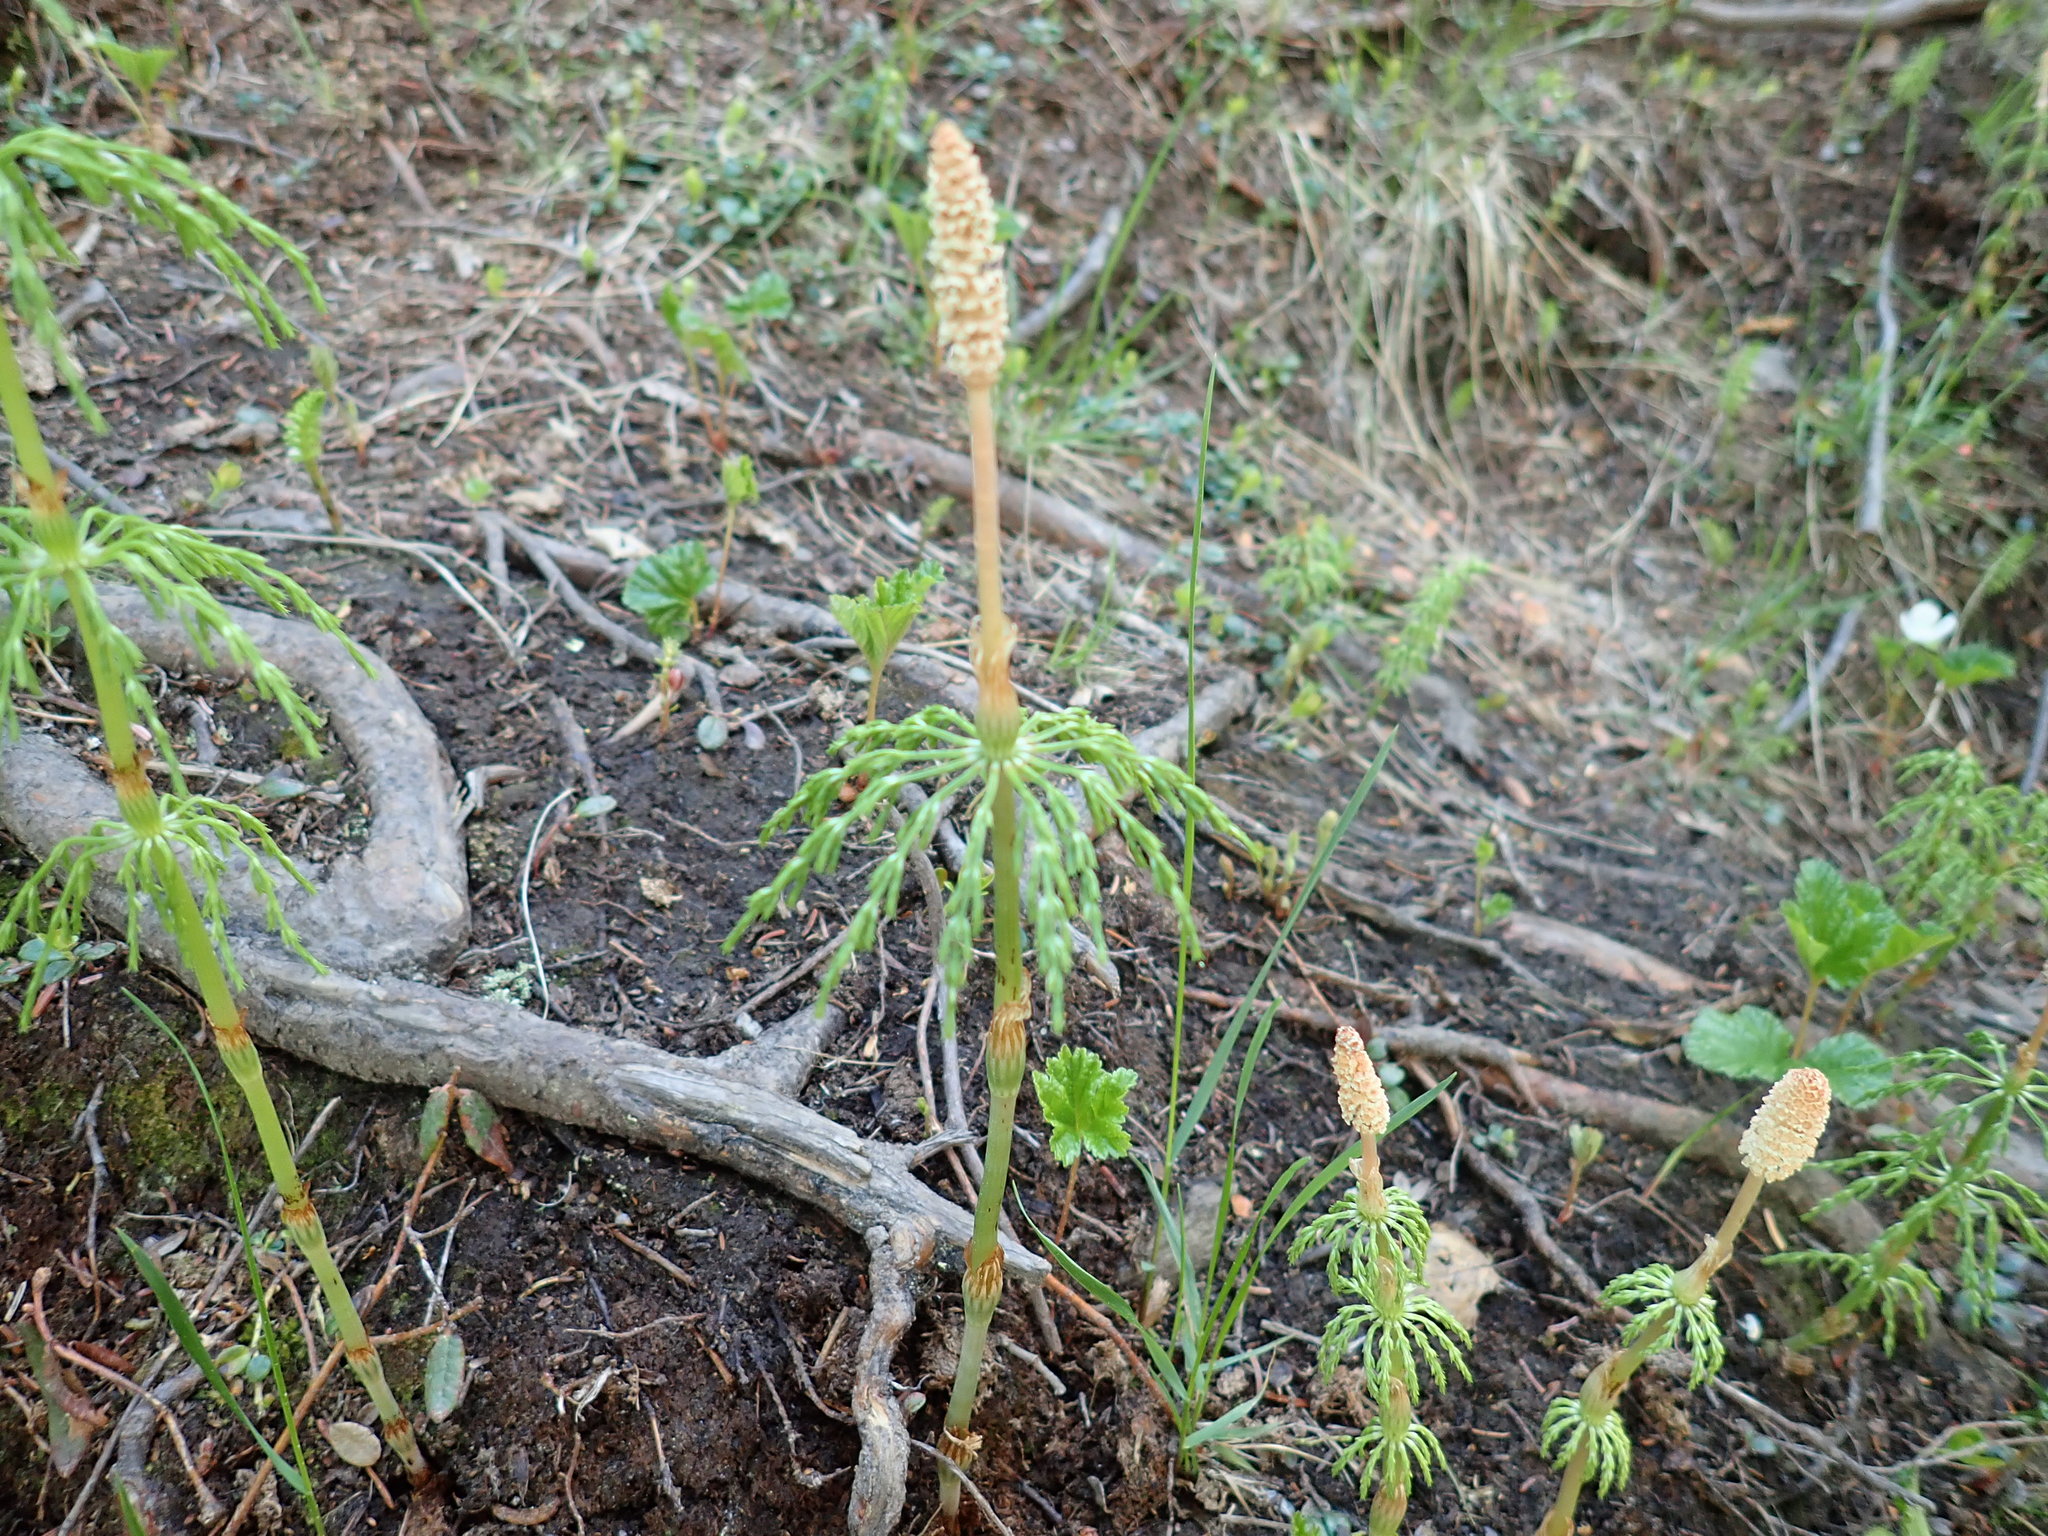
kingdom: Plantae
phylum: Tracheophyta
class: Polypodiopsida
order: Equisetales
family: Equisetaceae
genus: Equisetum
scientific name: Equisetum sylvaticum
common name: Wood horsetail
